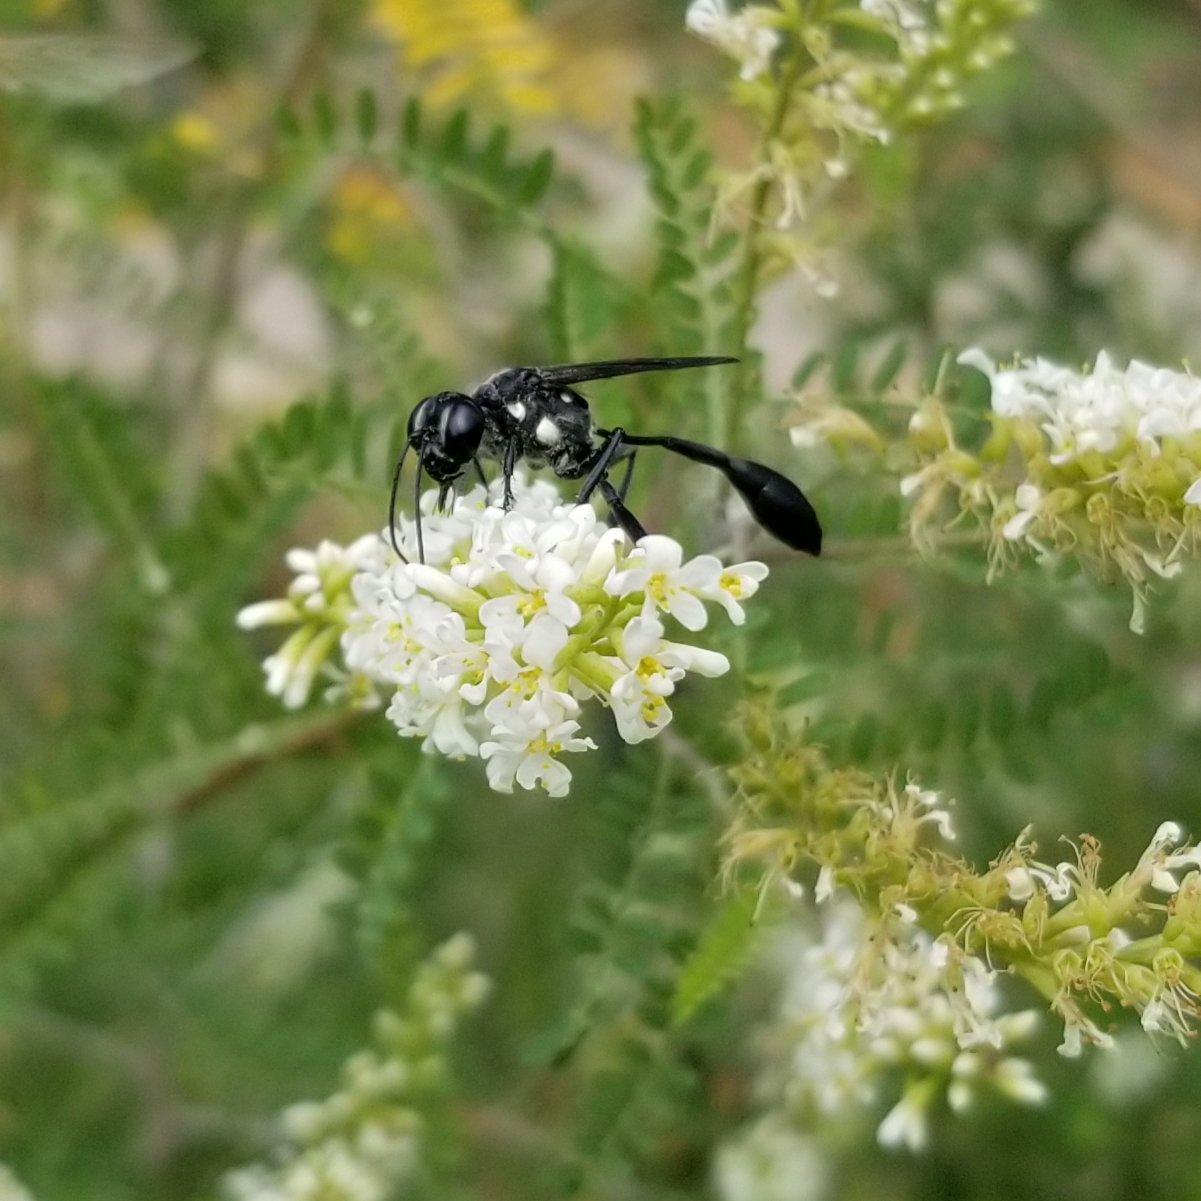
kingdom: Animalia
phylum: Arthropoda
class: Insecta
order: Hymenoptera
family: Sphecidae
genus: Eremnophila
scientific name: Eremnophila aureonotata
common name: Gold-marked thread-waisted wasp
